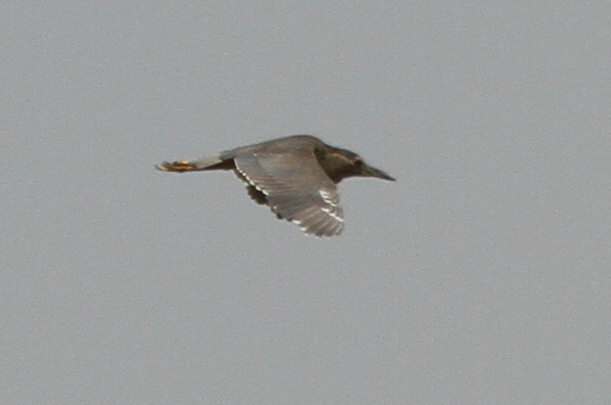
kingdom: Animalia
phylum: Chordata
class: Aves
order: Pelecaniformes
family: Ardeidae
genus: Nycticorax
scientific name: Nycticorax nycticorax
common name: Black-crowned night heron
